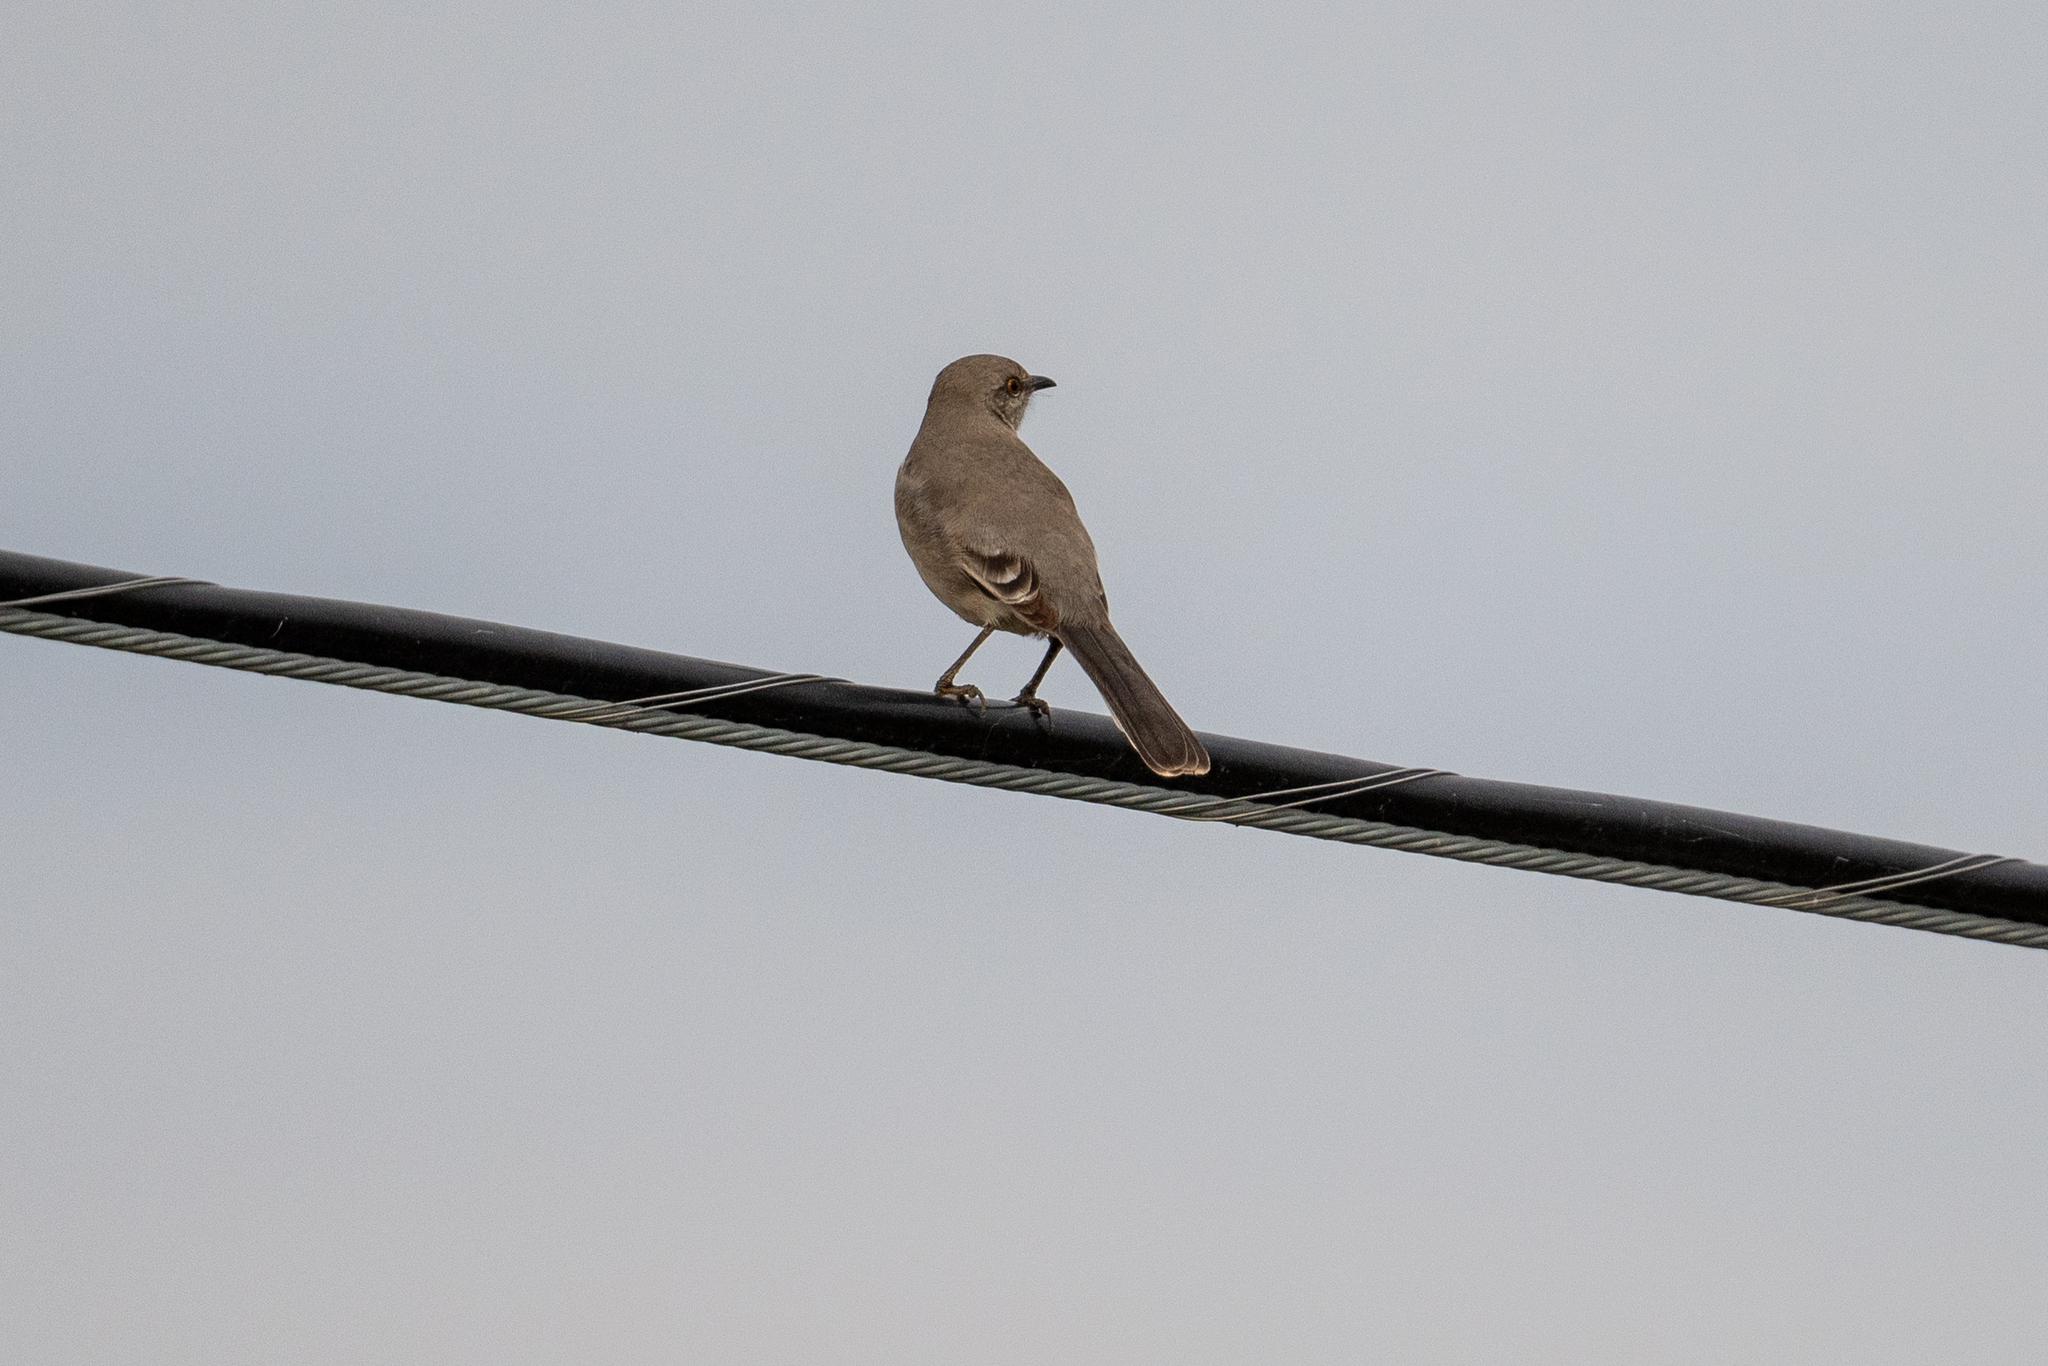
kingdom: Animalia
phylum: Chordata
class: Aves
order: Passeriformes
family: Mimidae
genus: Mimus
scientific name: Mimus polyglottos
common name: Northern mockingbird
